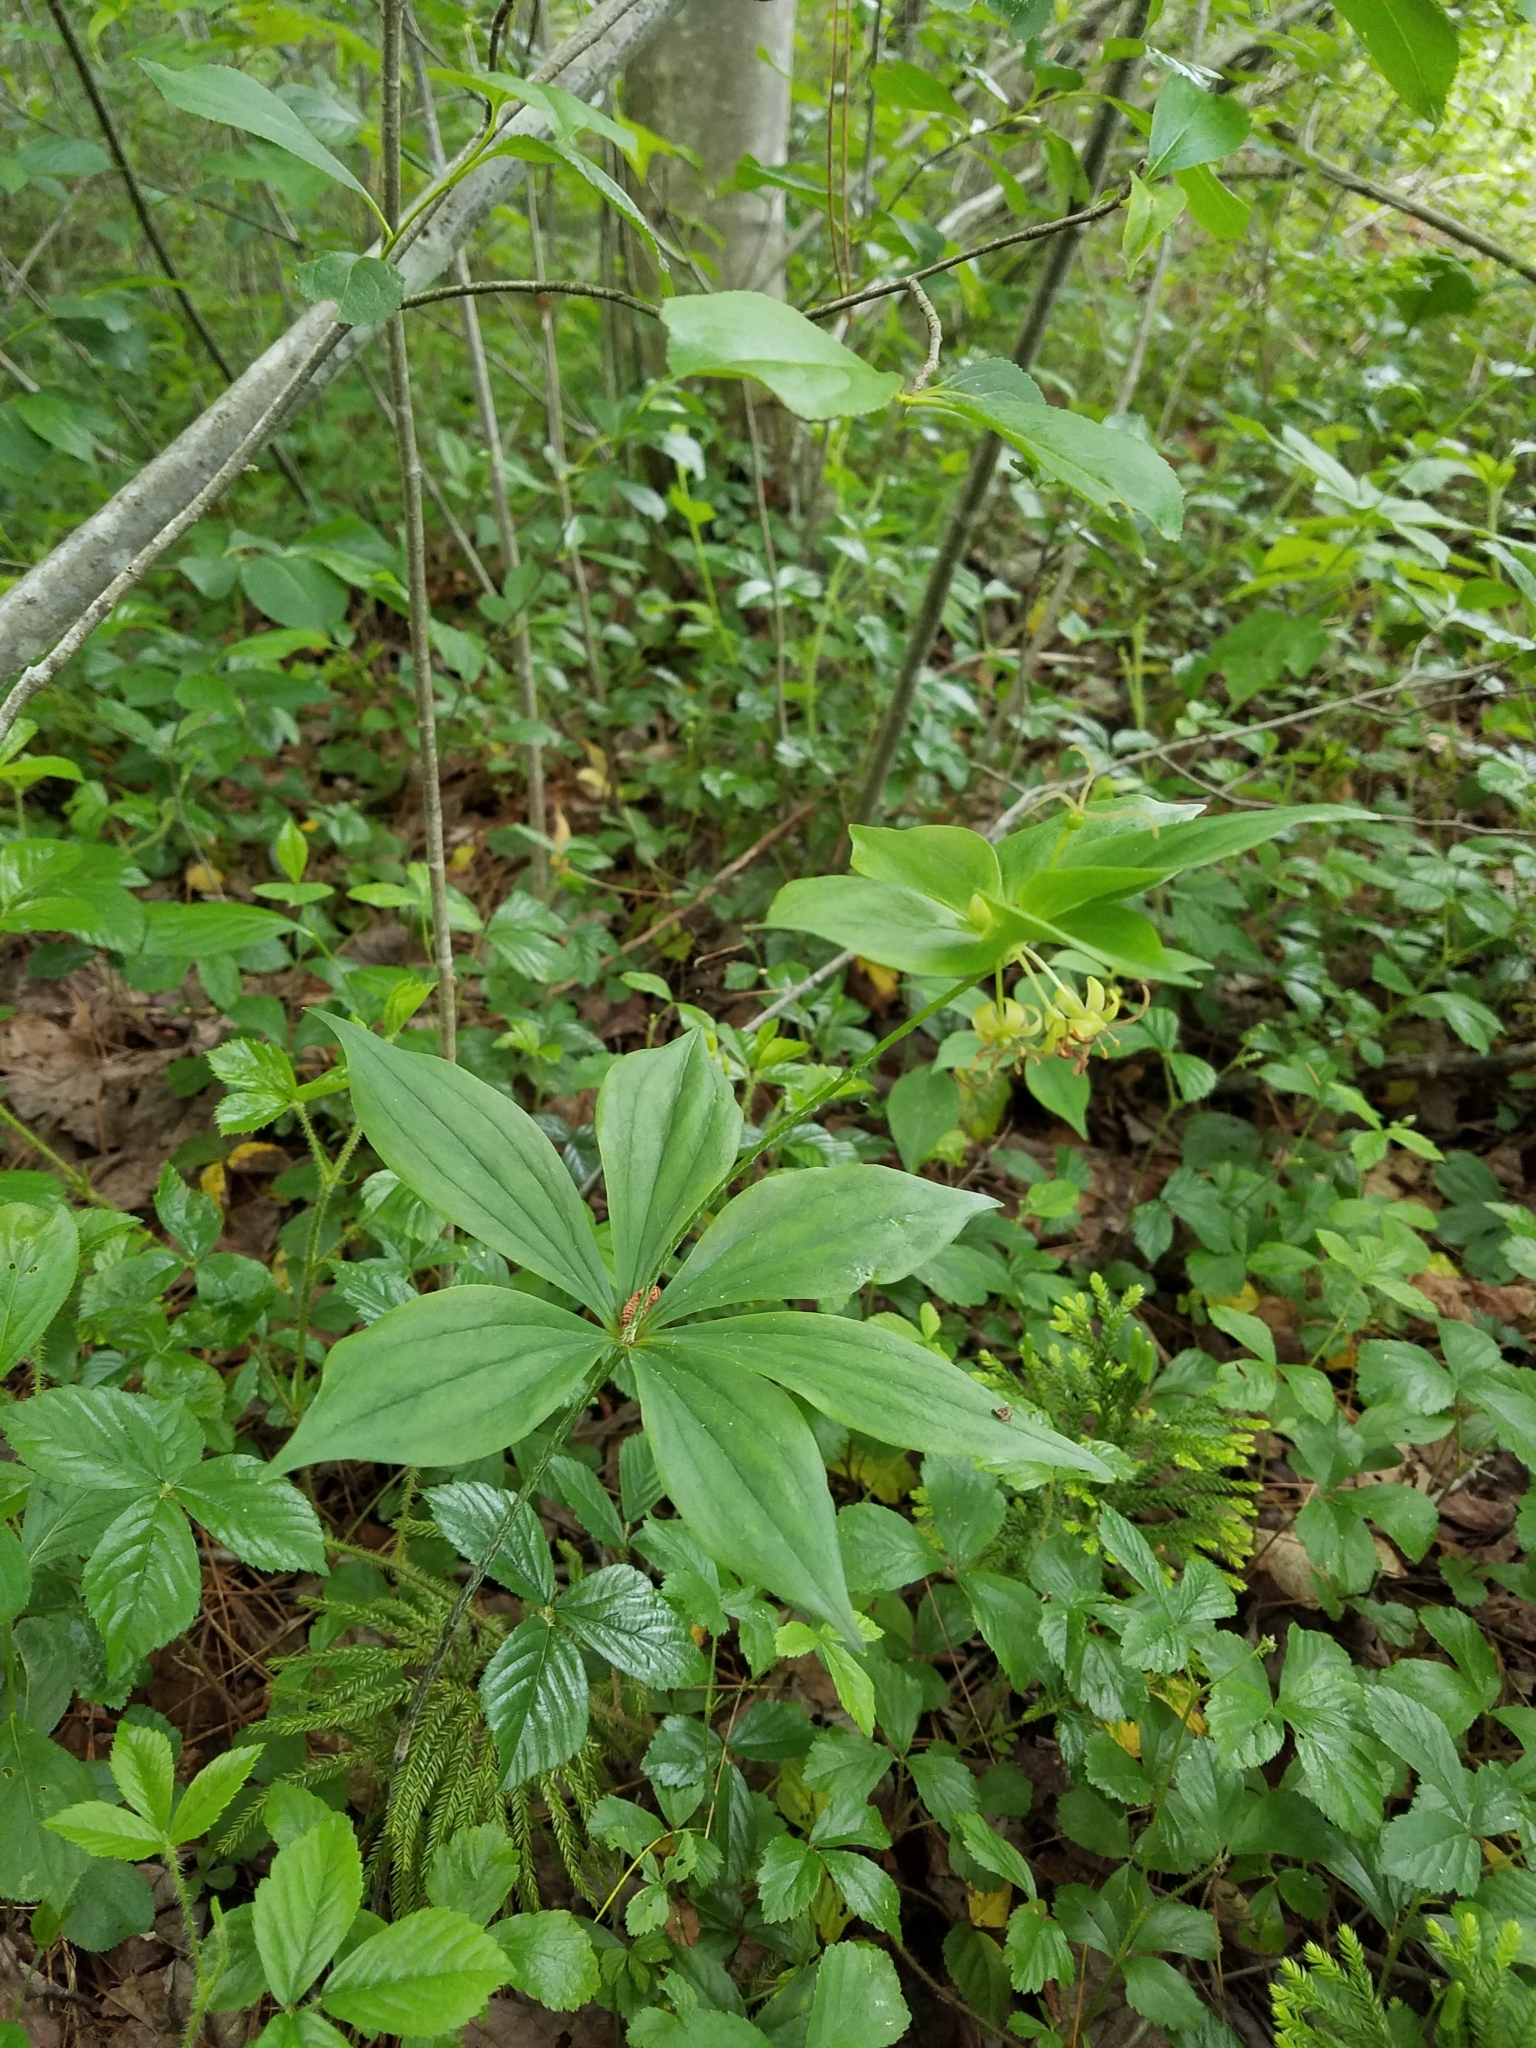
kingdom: Plantae
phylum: Tracheophyta
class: Liliopsida
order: Liliales
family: Liliaceae
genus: Medeola
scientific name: Medeola virginiana
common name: Indian cucumber-root
